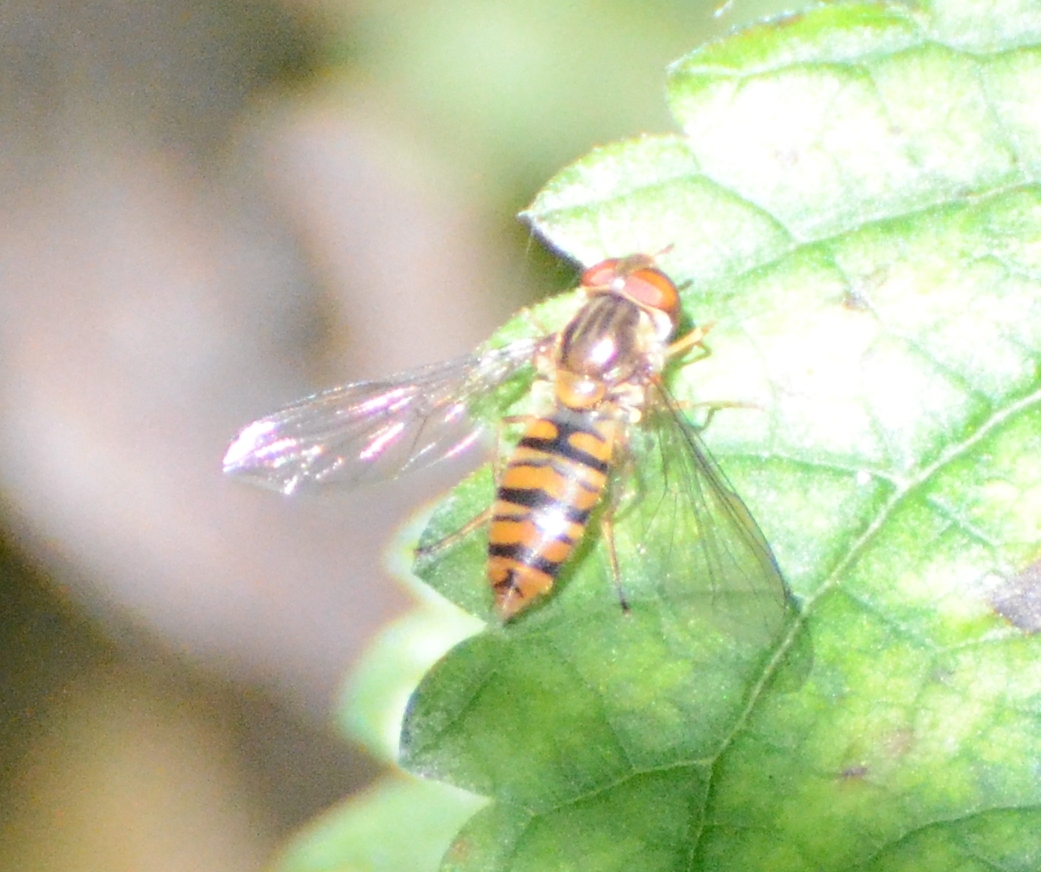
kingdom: Animalia
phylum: Arthropoda
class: Insecta
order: Diptera
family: Syrphidae
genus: Episyrphus
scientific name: Episyrphus balteatus
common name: Marmalade hoverfly
